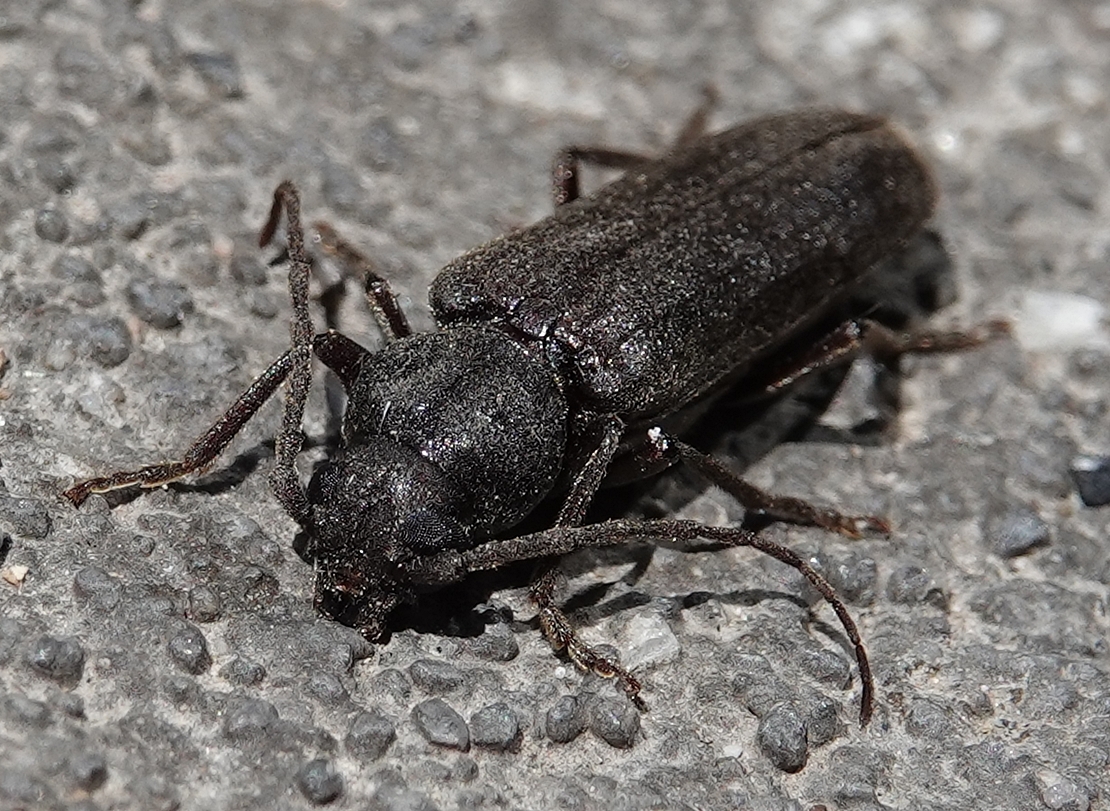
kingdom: Animalia
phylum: Arthropoda
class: Insecta
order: Coleoptera
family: Cerambycidae
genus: Arhopalus
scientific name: Arhopalus rusticus
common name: Rust pine borer
